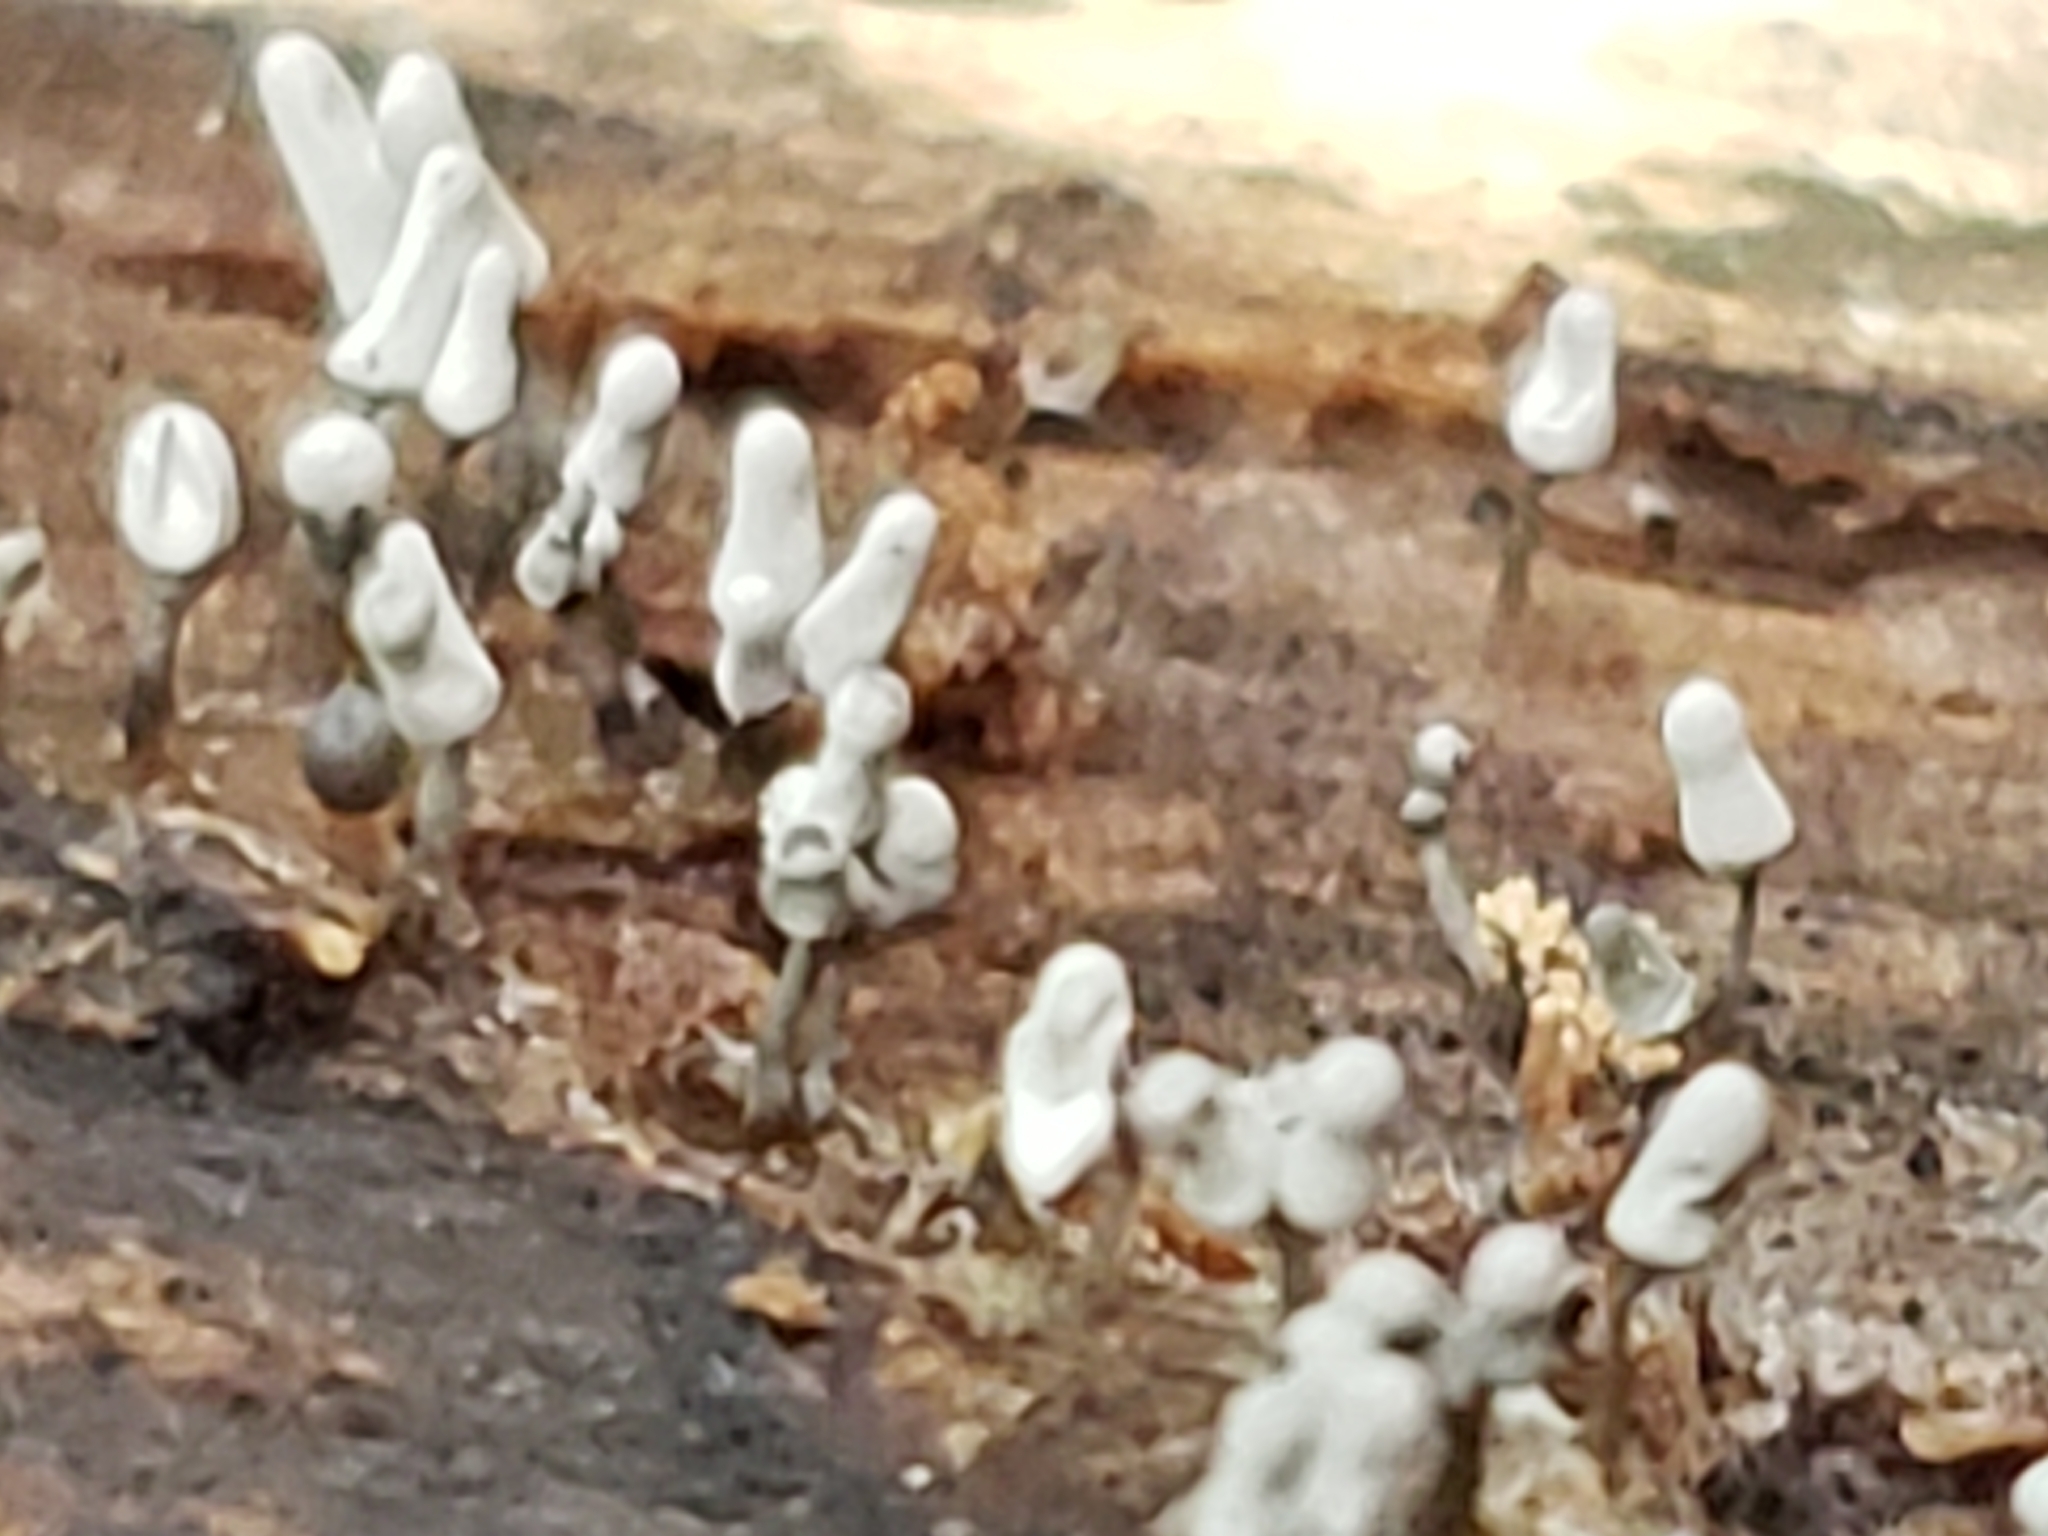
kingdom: Protozoa
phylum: Mycetozoa
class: Myxomycetes
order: Trichiales
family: Arcyriaceae
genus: Arcyria
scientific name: Arcyria cinerea
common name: White carnival candy slime mold
